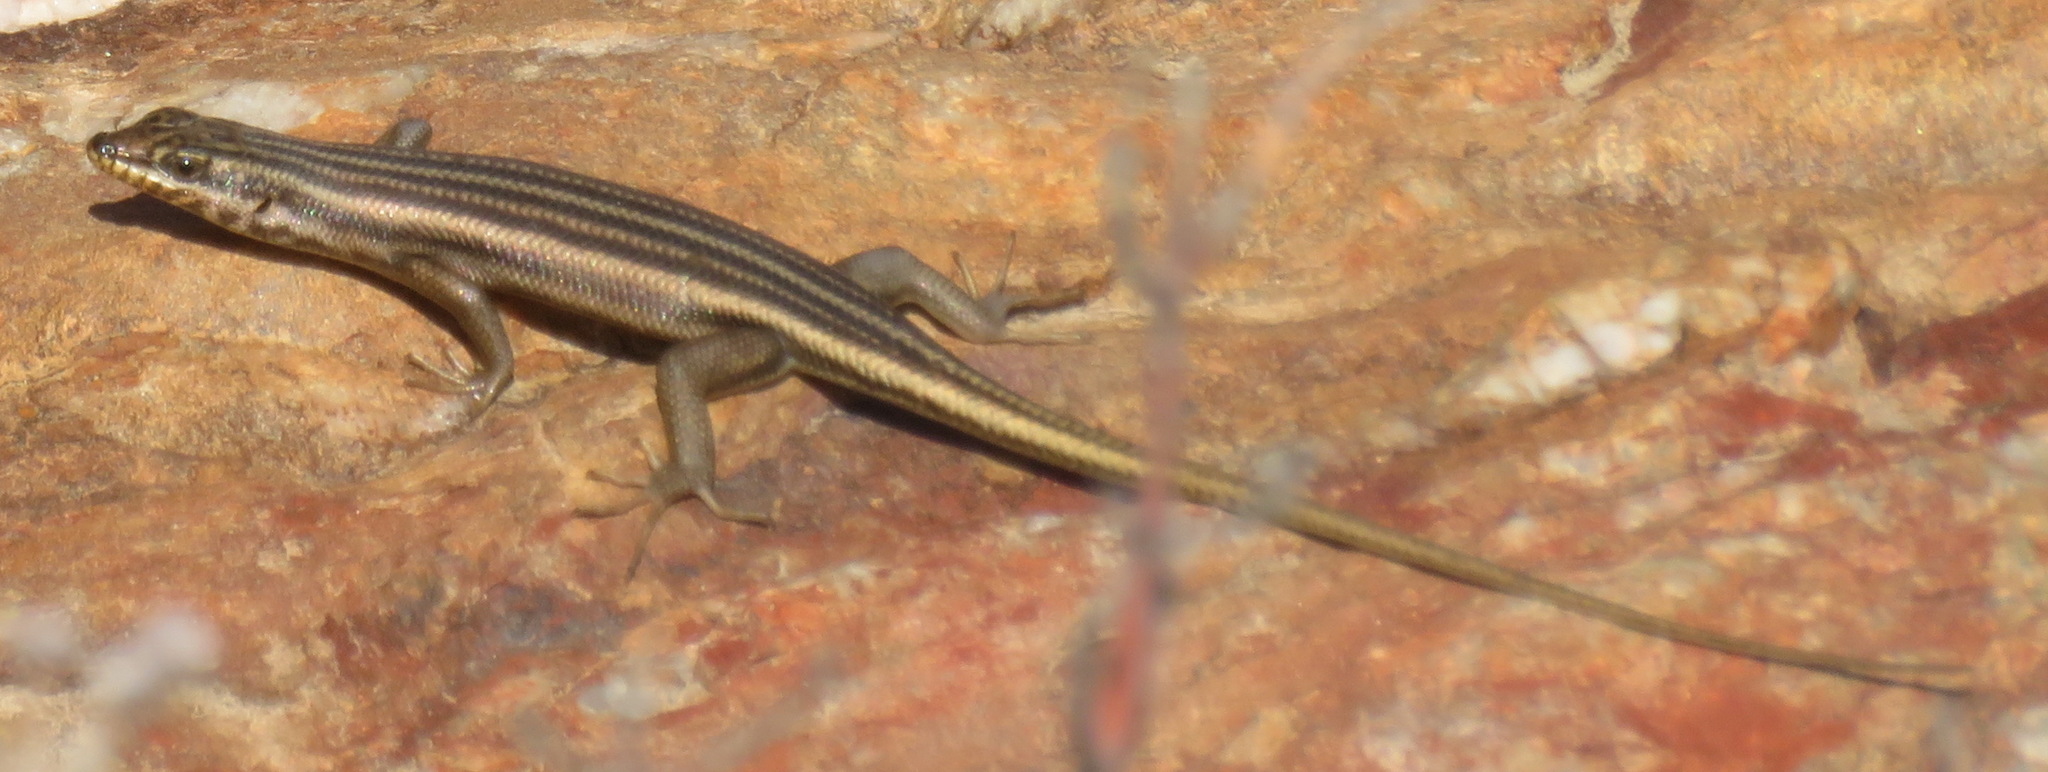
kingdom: Animalia
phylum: Chordata
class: Squamata
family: Scincidae
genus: Trachylepis
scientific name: Trachylepis sulcata
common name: Western rock skink
